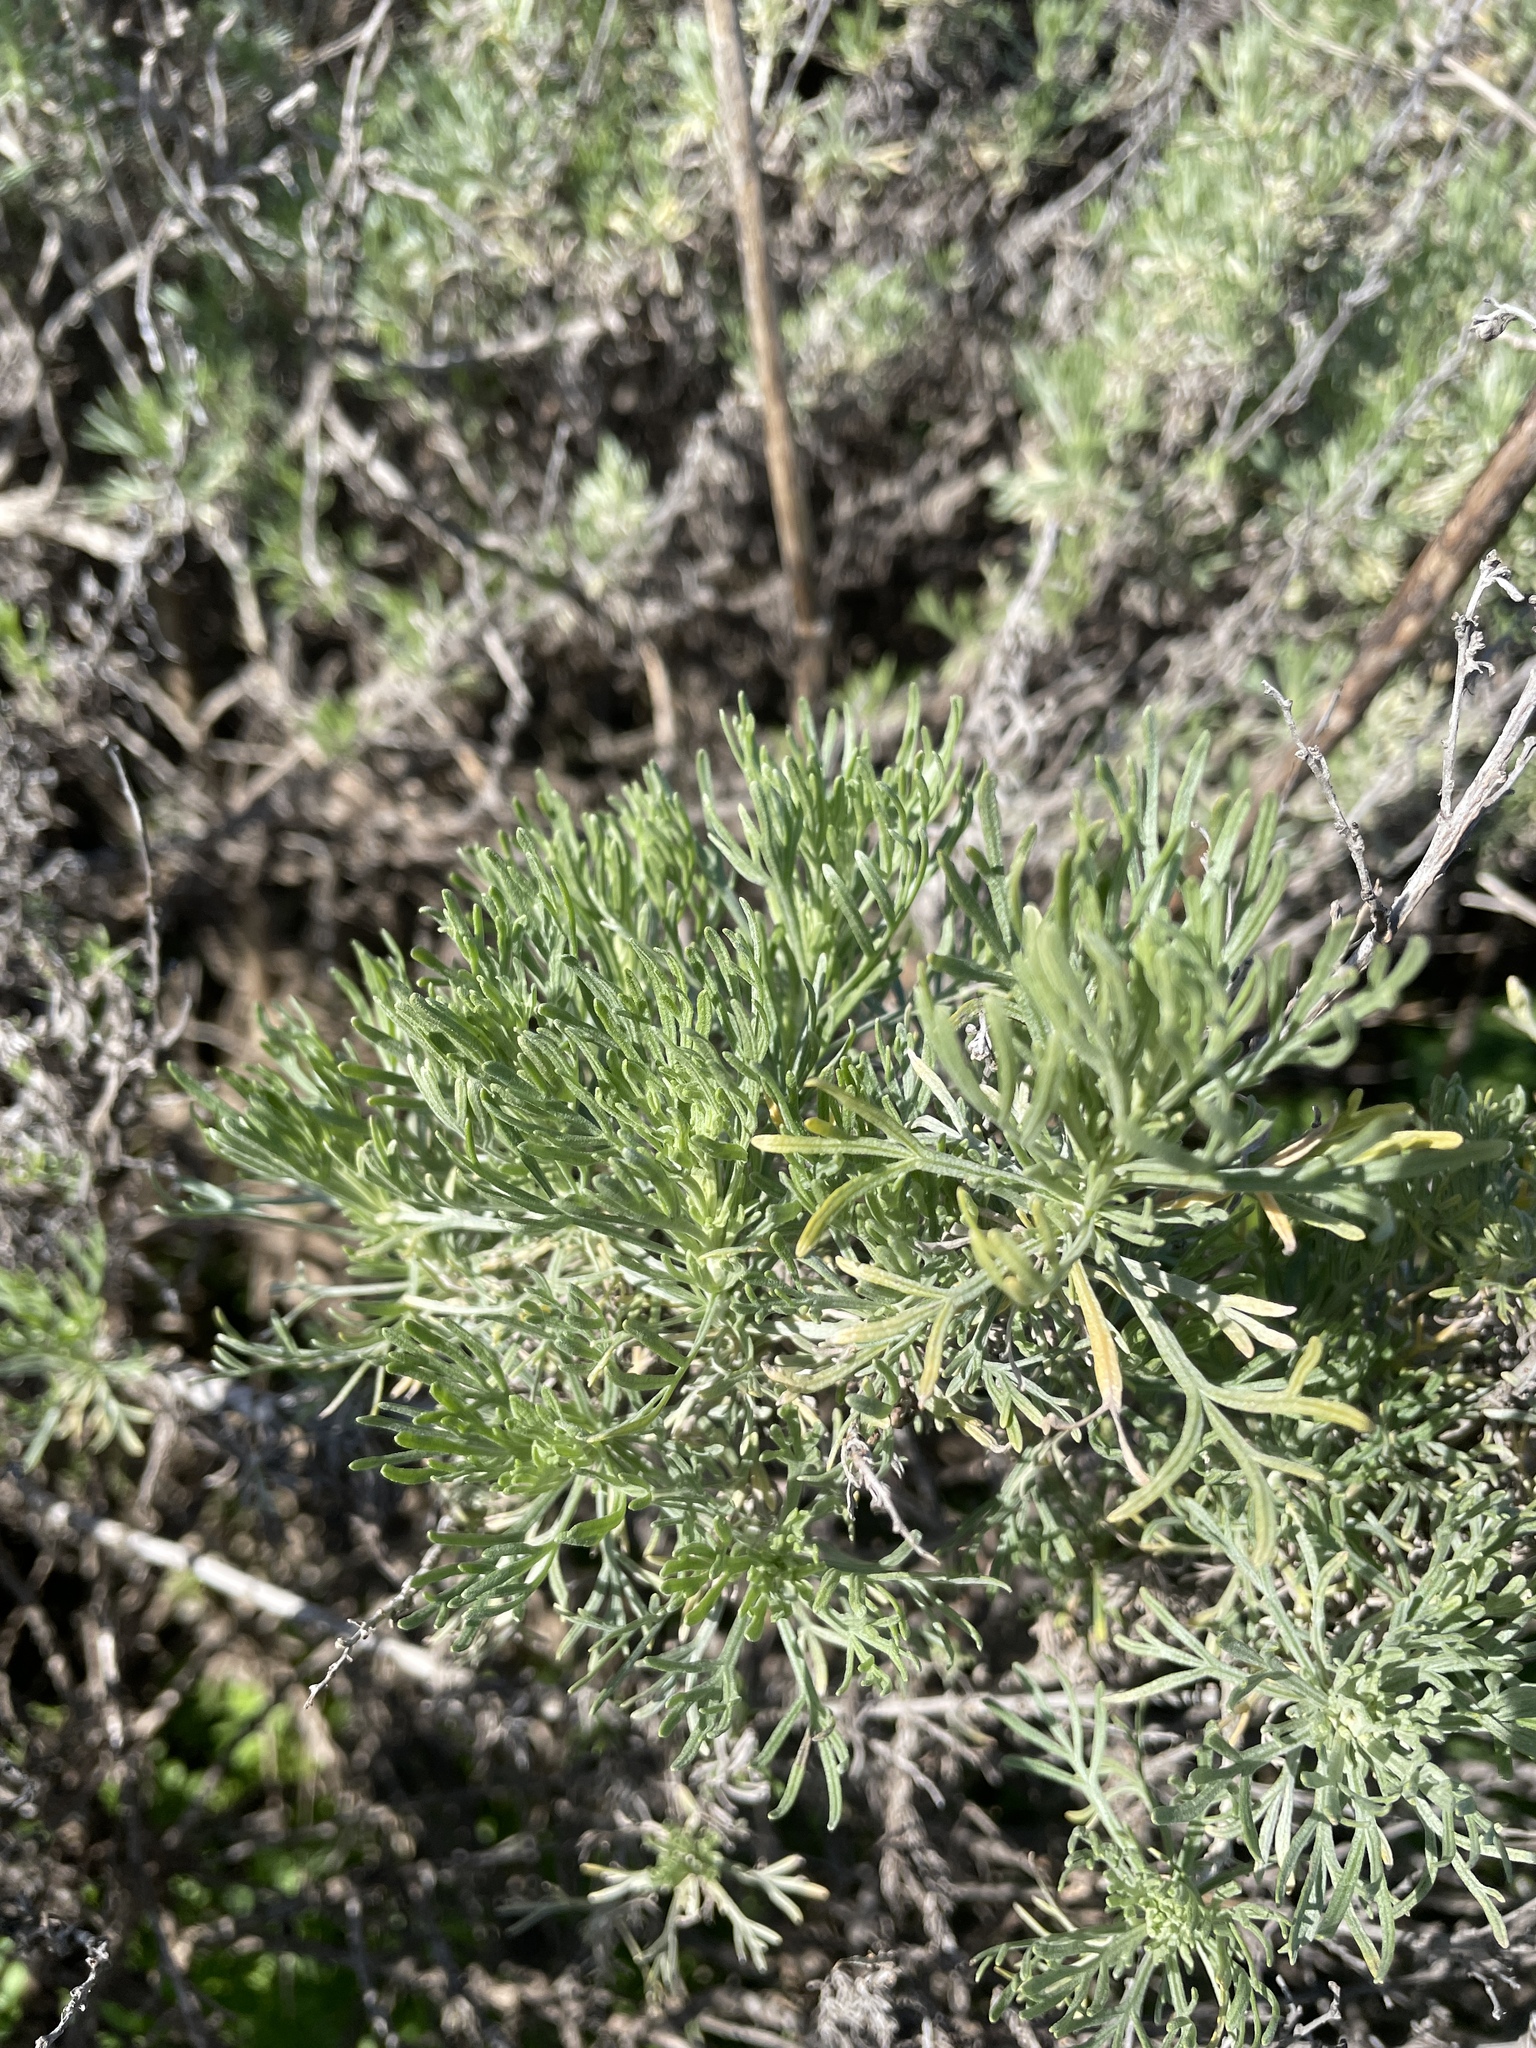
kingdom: Plantae
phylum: Tracheophyta
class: Magnoliopsida
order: Asterales
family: Asteraceae
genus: Artemisia
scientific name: Artemisia californica
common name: California sagebrush
